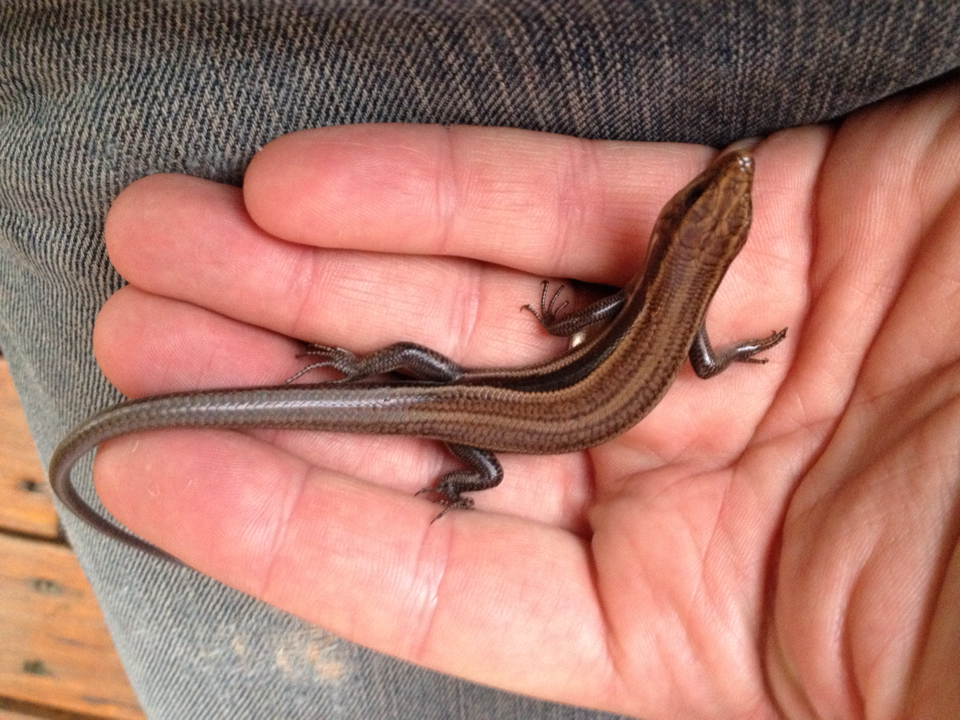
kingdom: Animalia
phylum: Chordata
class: Squamata
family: Scincidae
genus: Plestiodon
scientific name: Plestiodon fasciatus
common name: Five-lined skink
